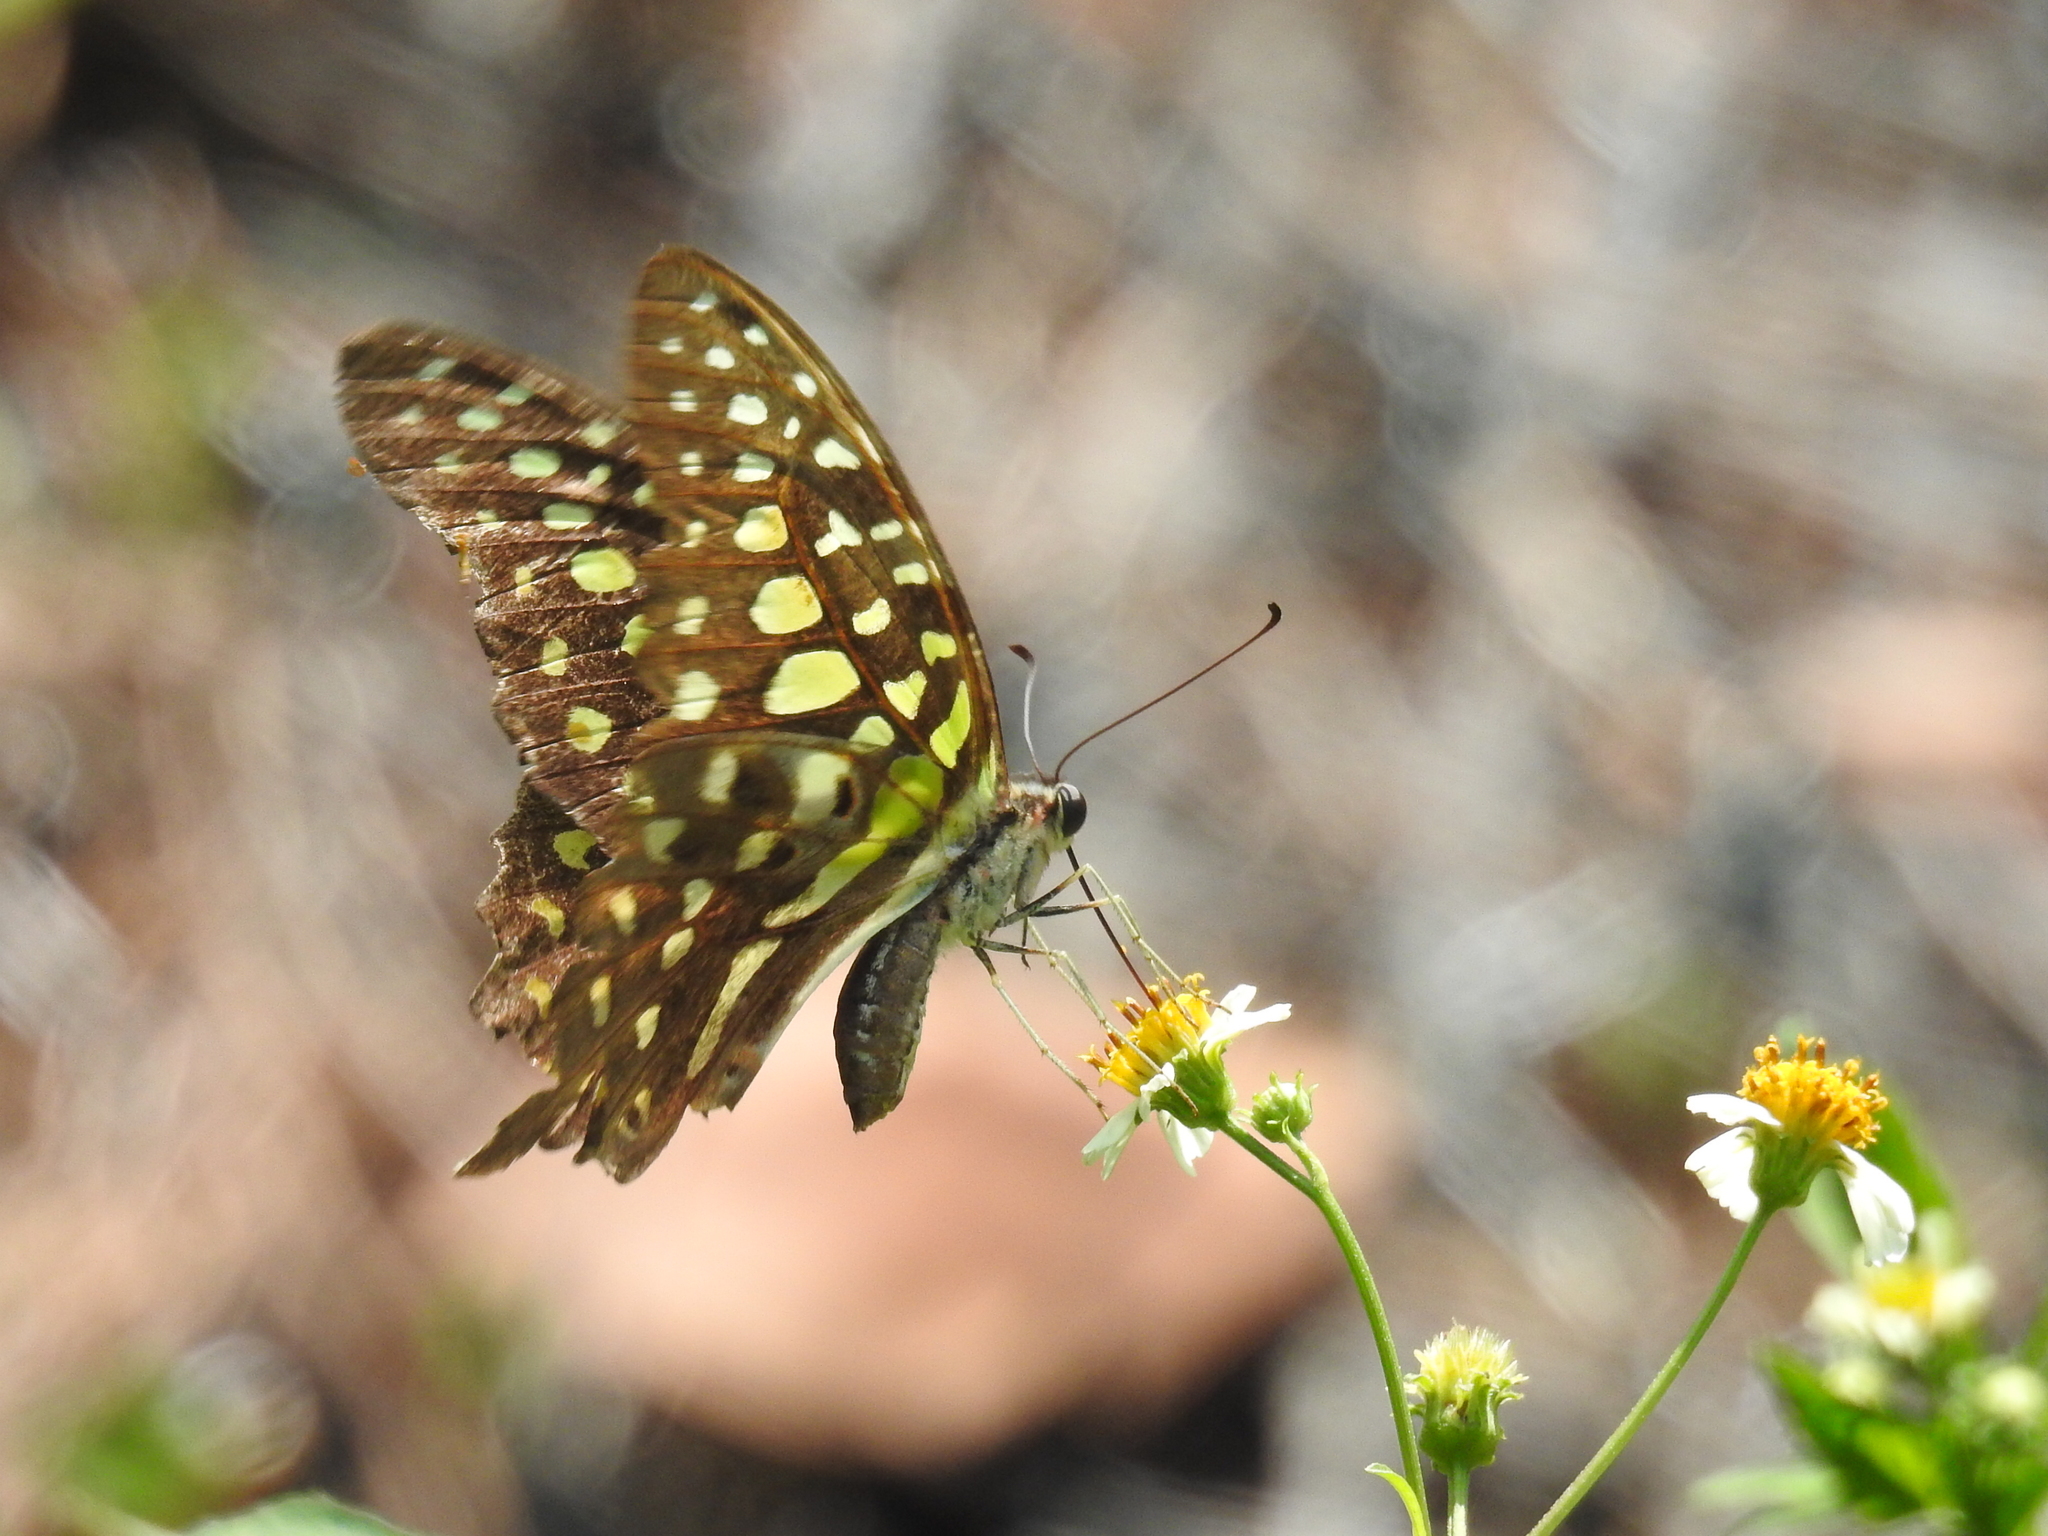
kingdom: Animalia
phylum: Arthropoda
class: Insecta
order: Lepidoptera
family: Papilionidae
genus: Graphium
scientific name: Graphium agamemnon
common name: Tailed jay
